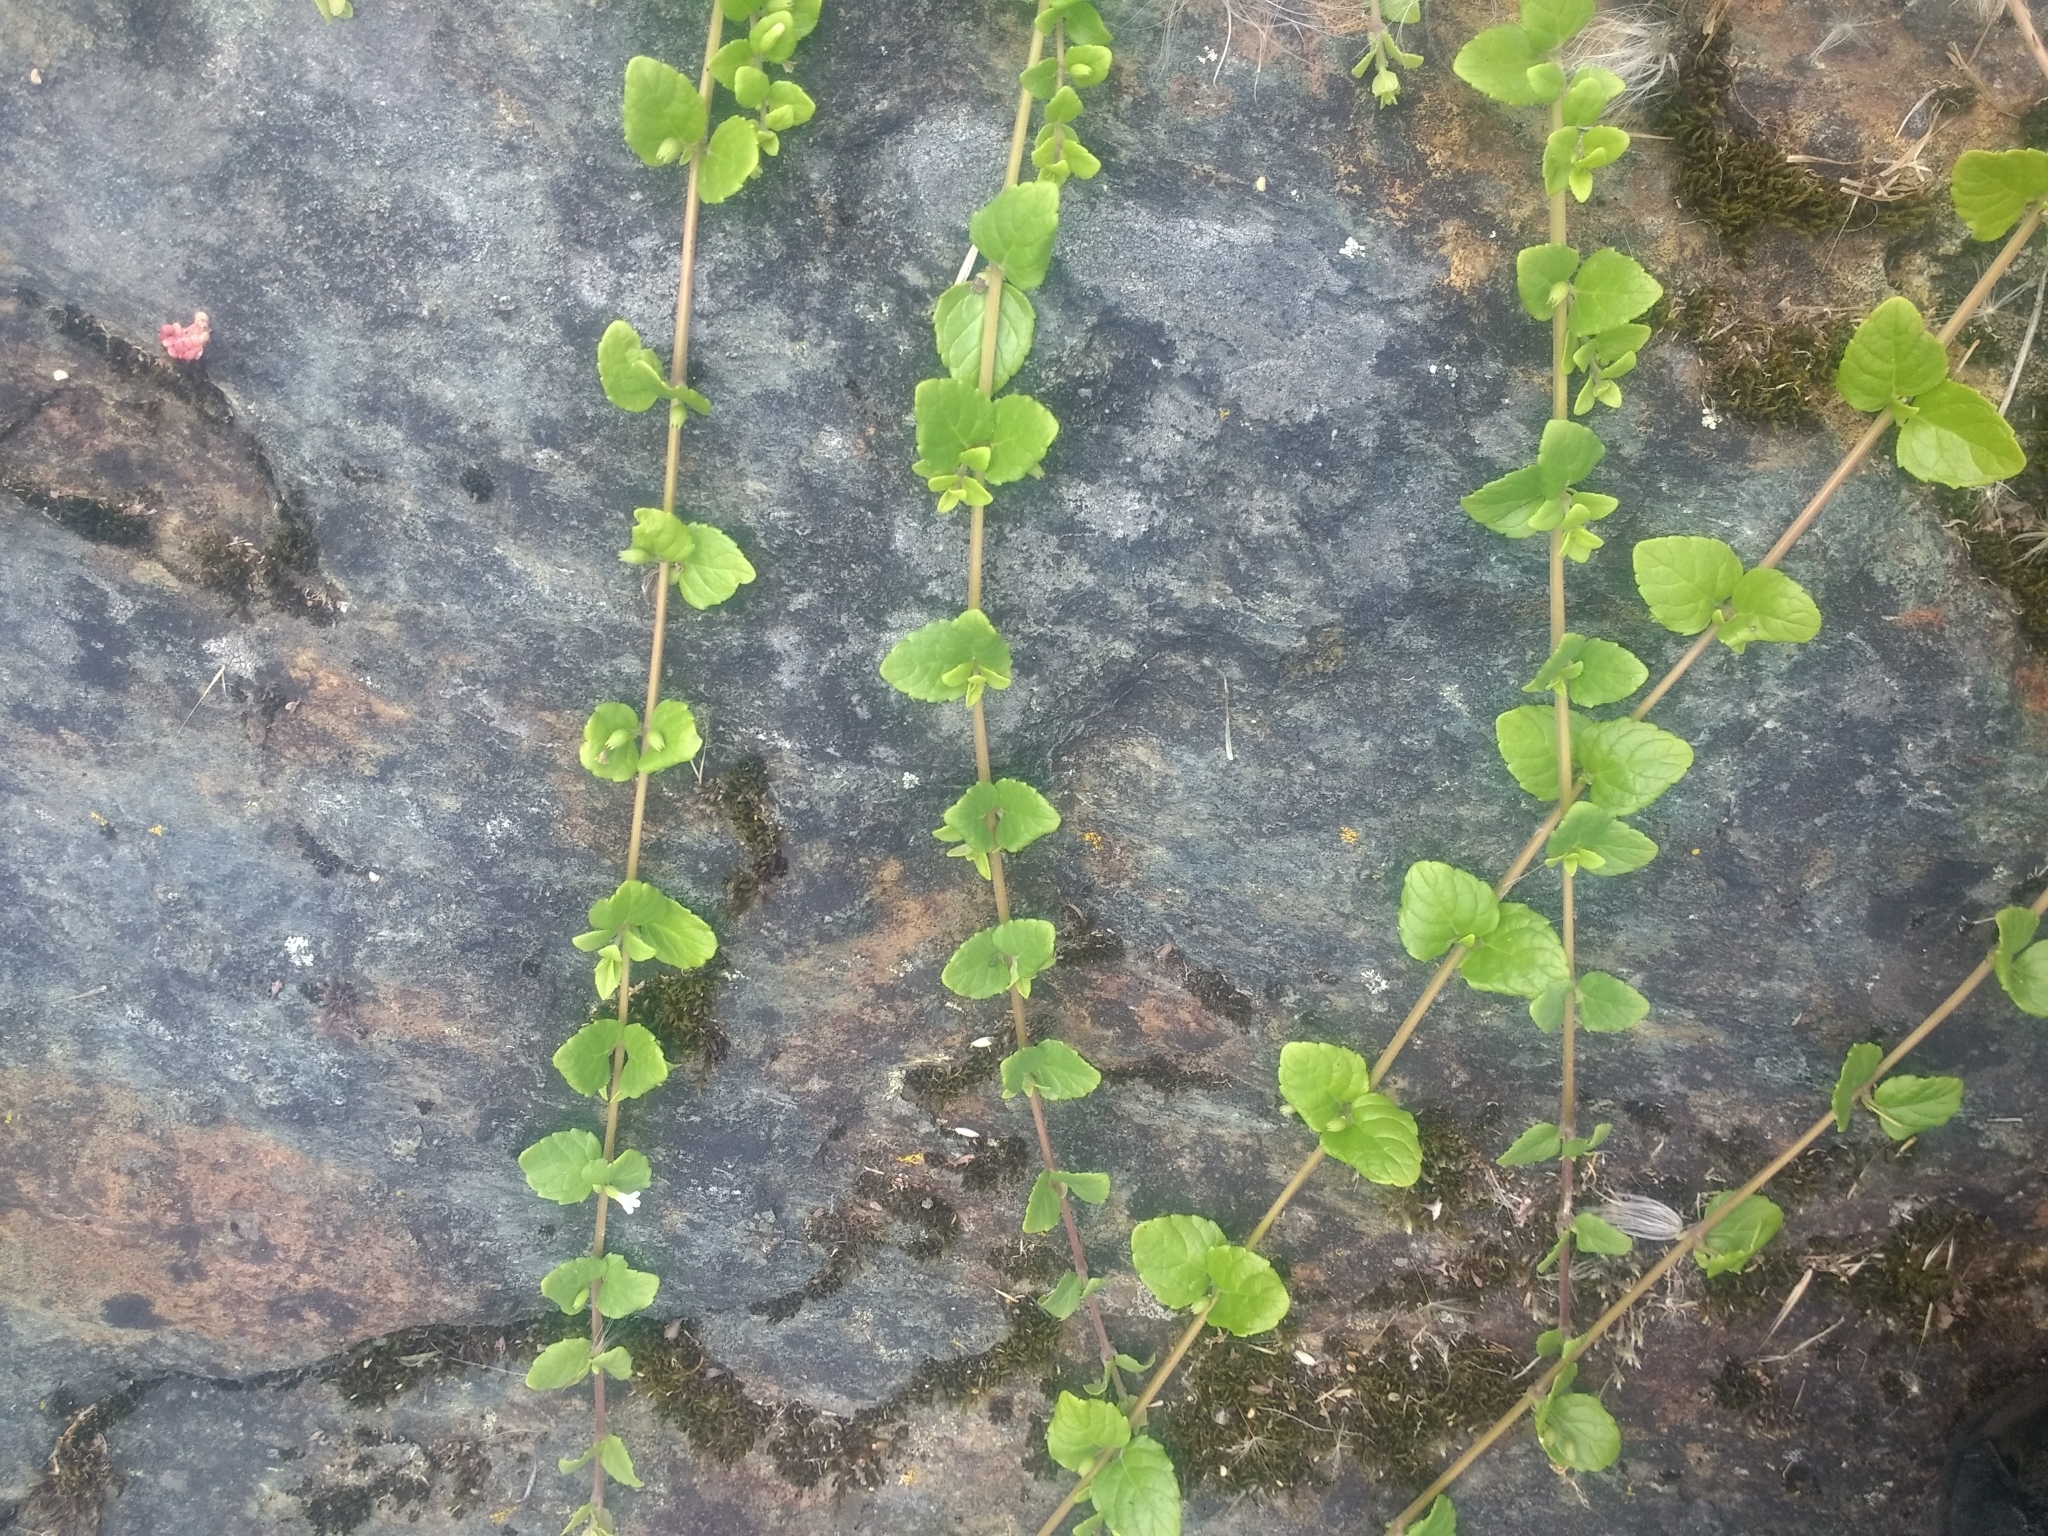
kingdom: Plantae
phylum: Tracheophyta
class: Magnoliopsida
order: Lamiales
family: Lamiaceae
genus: Micromeria
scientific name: Micromeria douglasii
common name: Yerba buena
